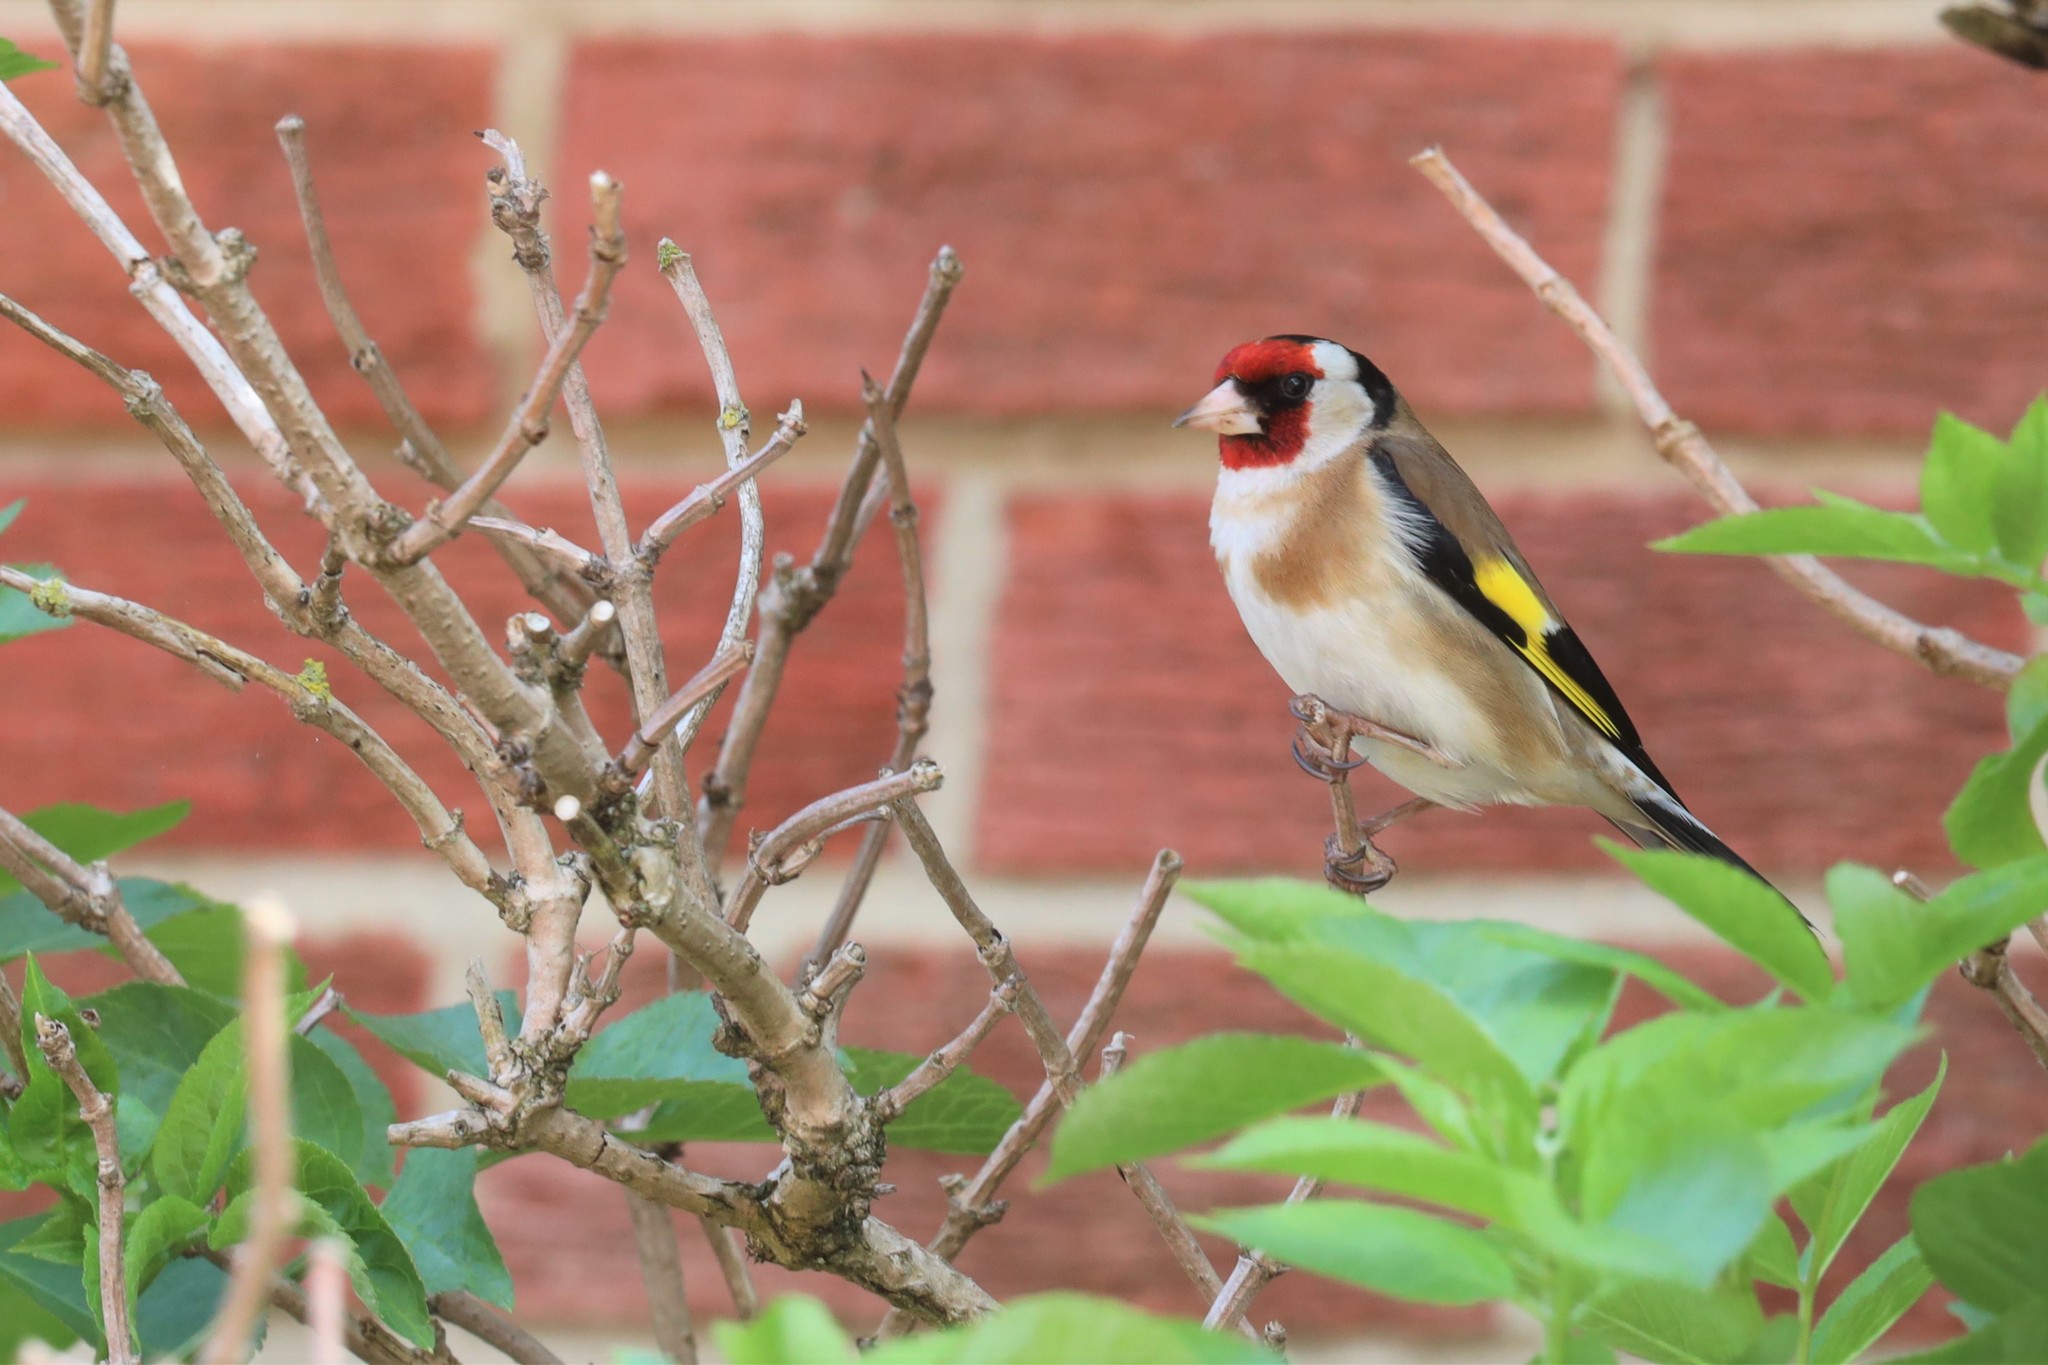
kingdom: Animalia
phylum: Chordata
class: Aves
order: Passeriformes
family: Fringillidae
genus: Carduelis
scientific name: Carduelis carduelis
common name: European goldfinch
